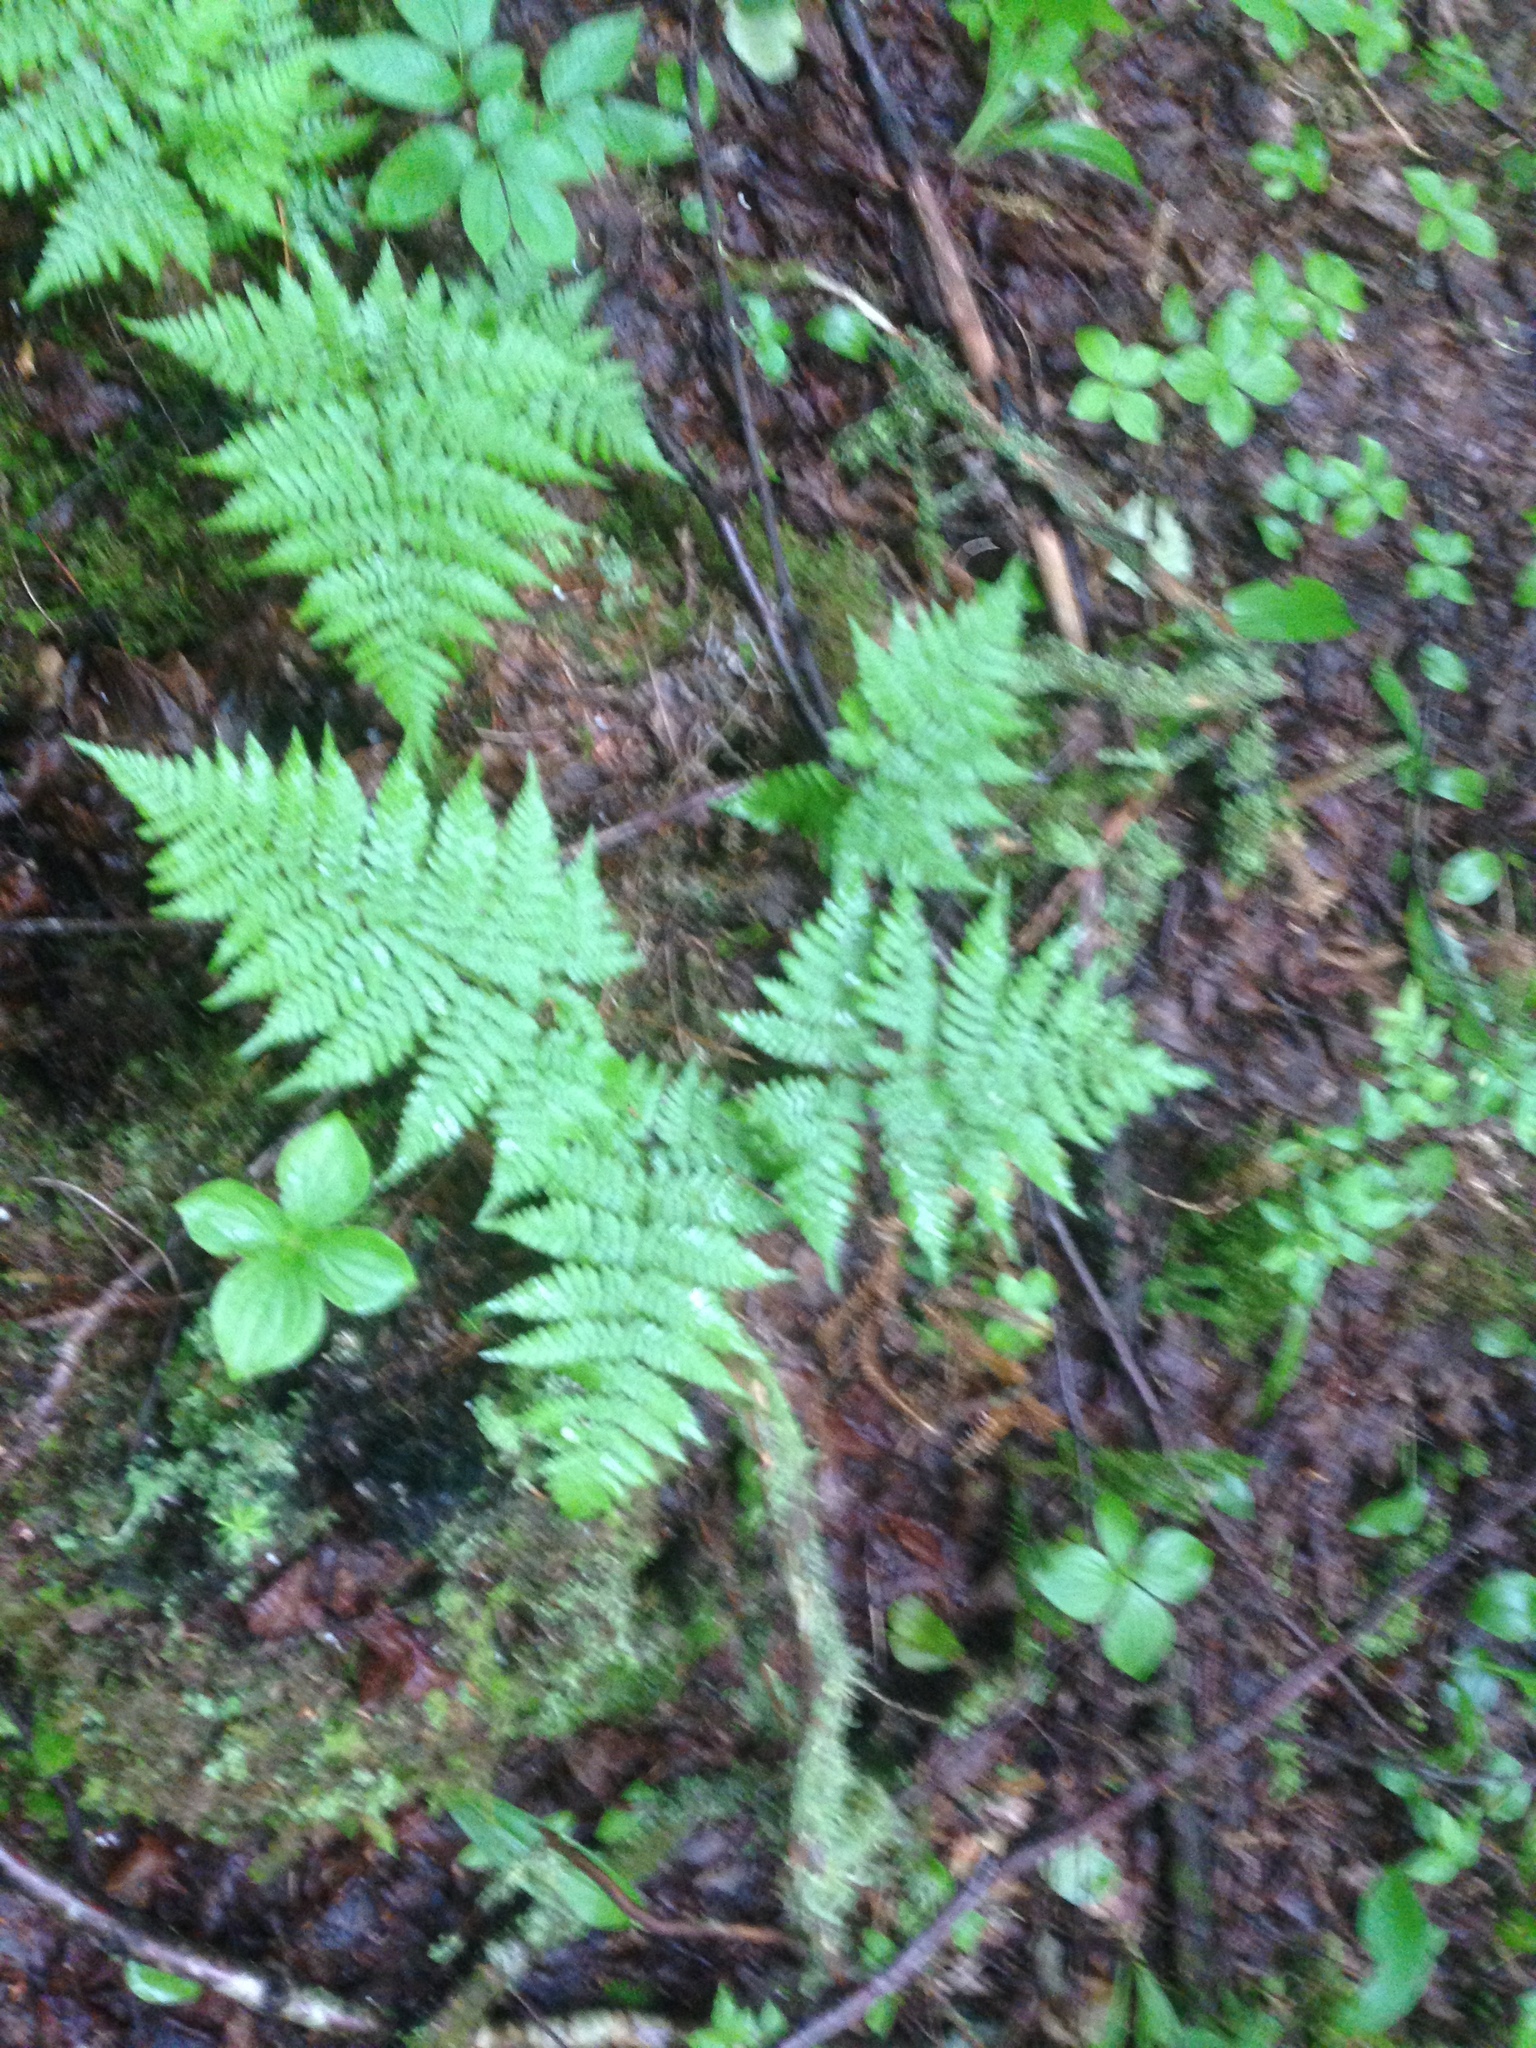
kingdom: Plantae
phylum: Tracheophyta
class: Polypodiopsida
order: Polypodiales
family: Dryopteridaceae
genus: Dryopteris
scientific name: Dryopteris expansa
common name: Northern buckler fern
